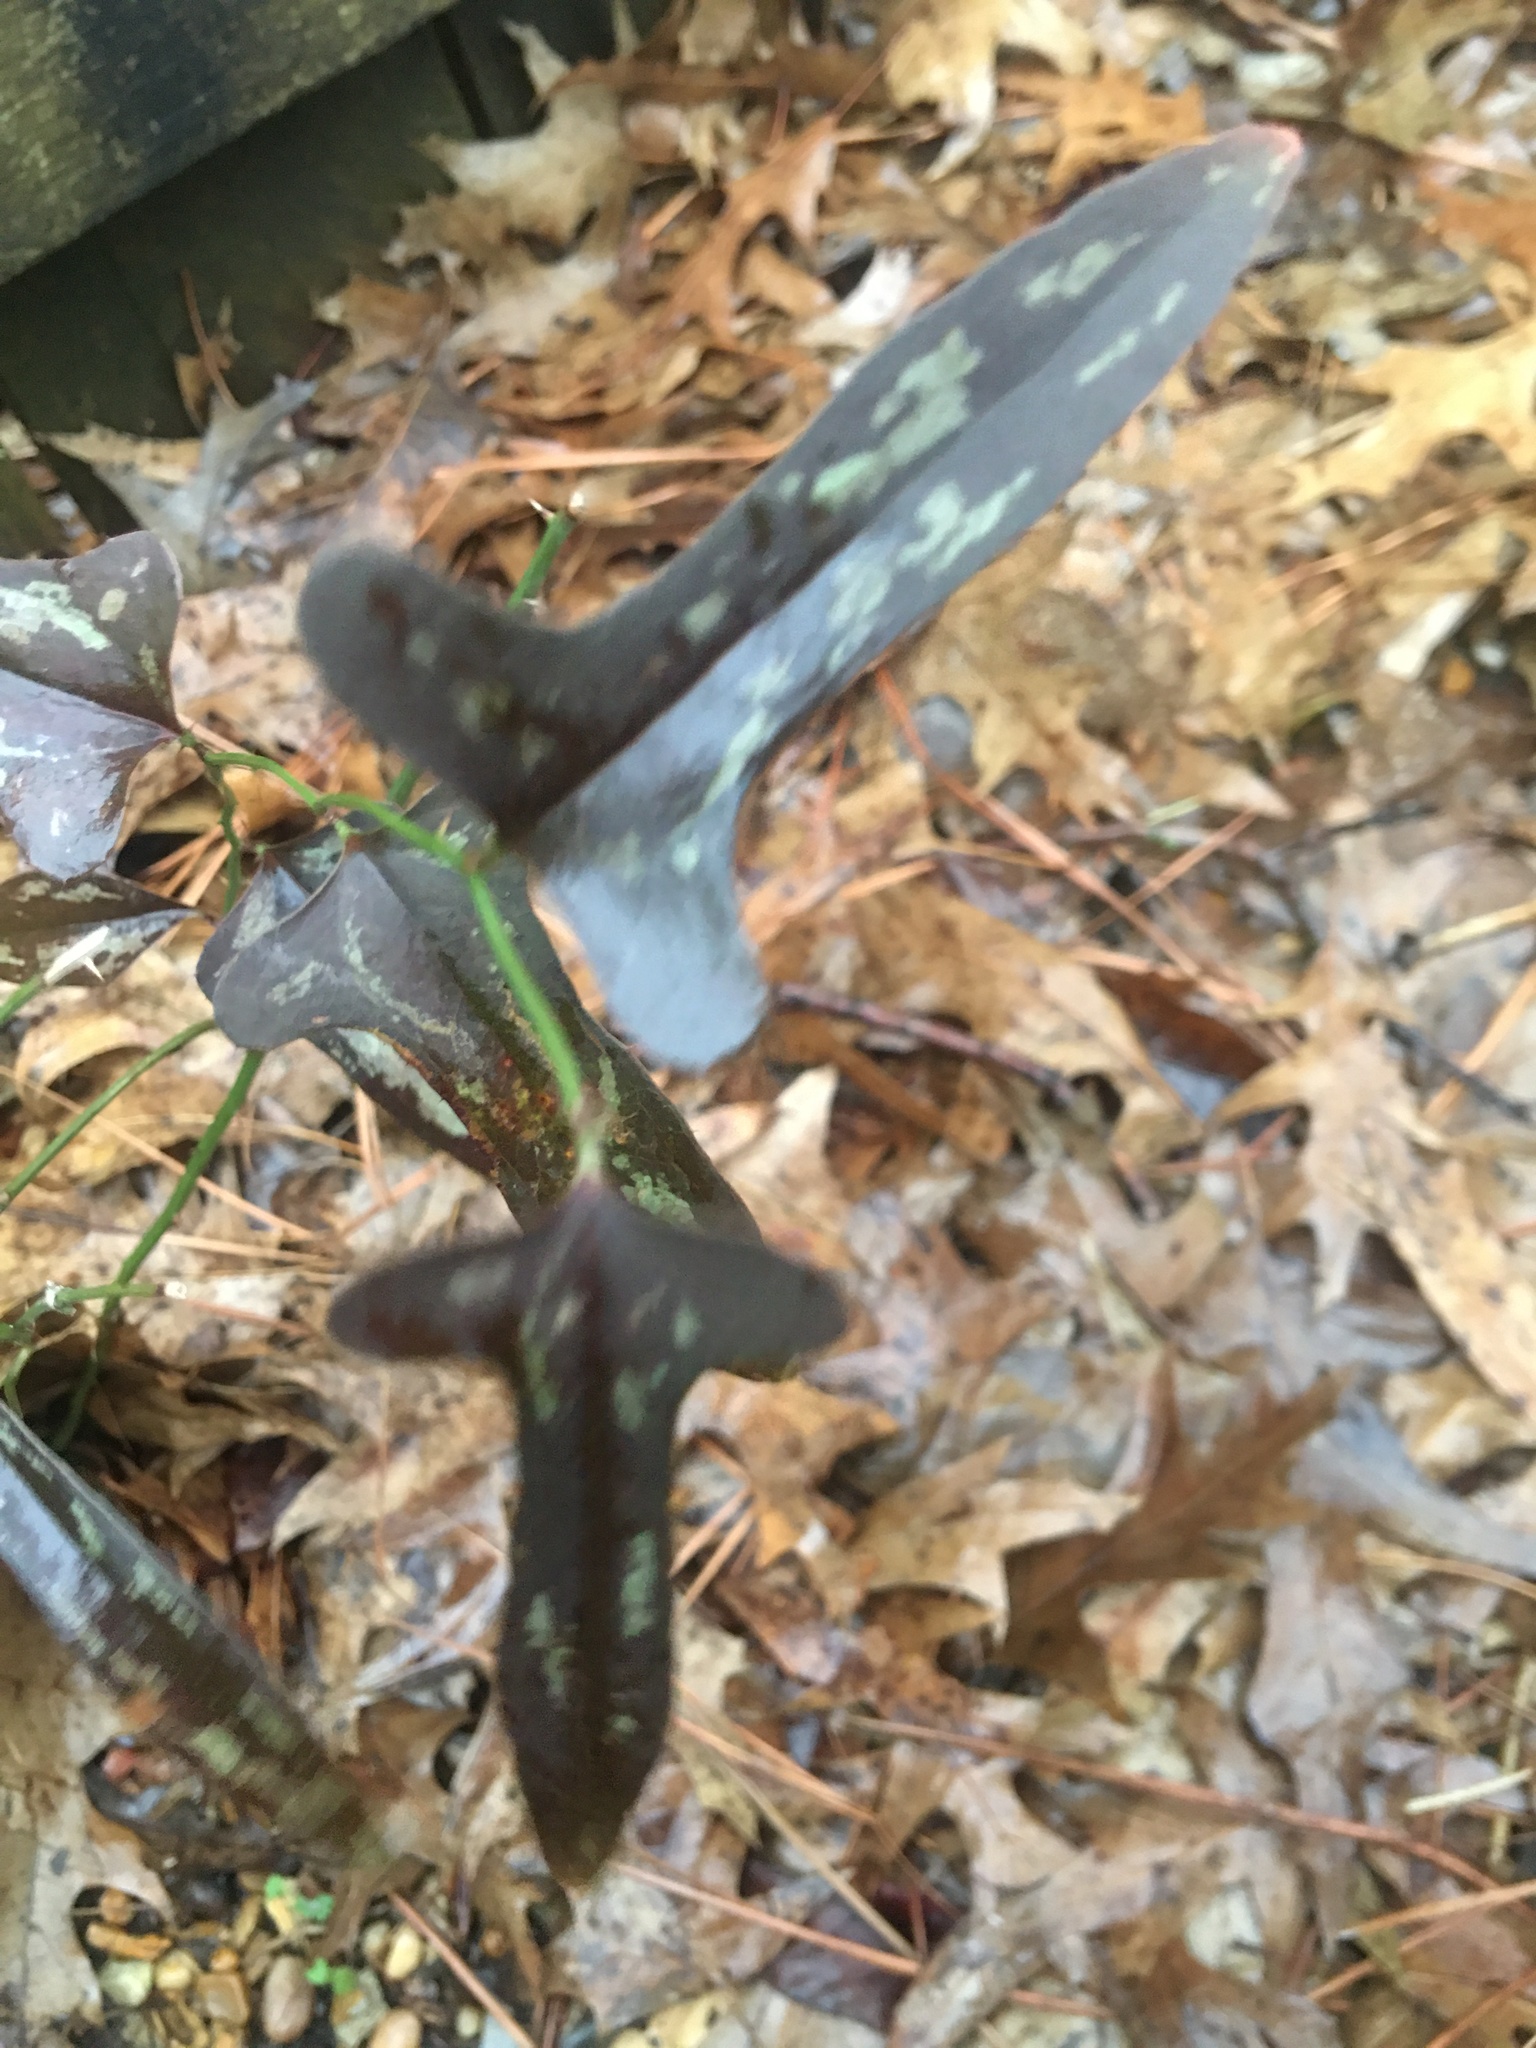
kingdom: Plantae
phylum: Tracheophyta
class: Liliopsida
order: Liliales
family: Smilacaceae
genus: Smilax
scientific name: Smilax bona-nox
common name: Catbrier
